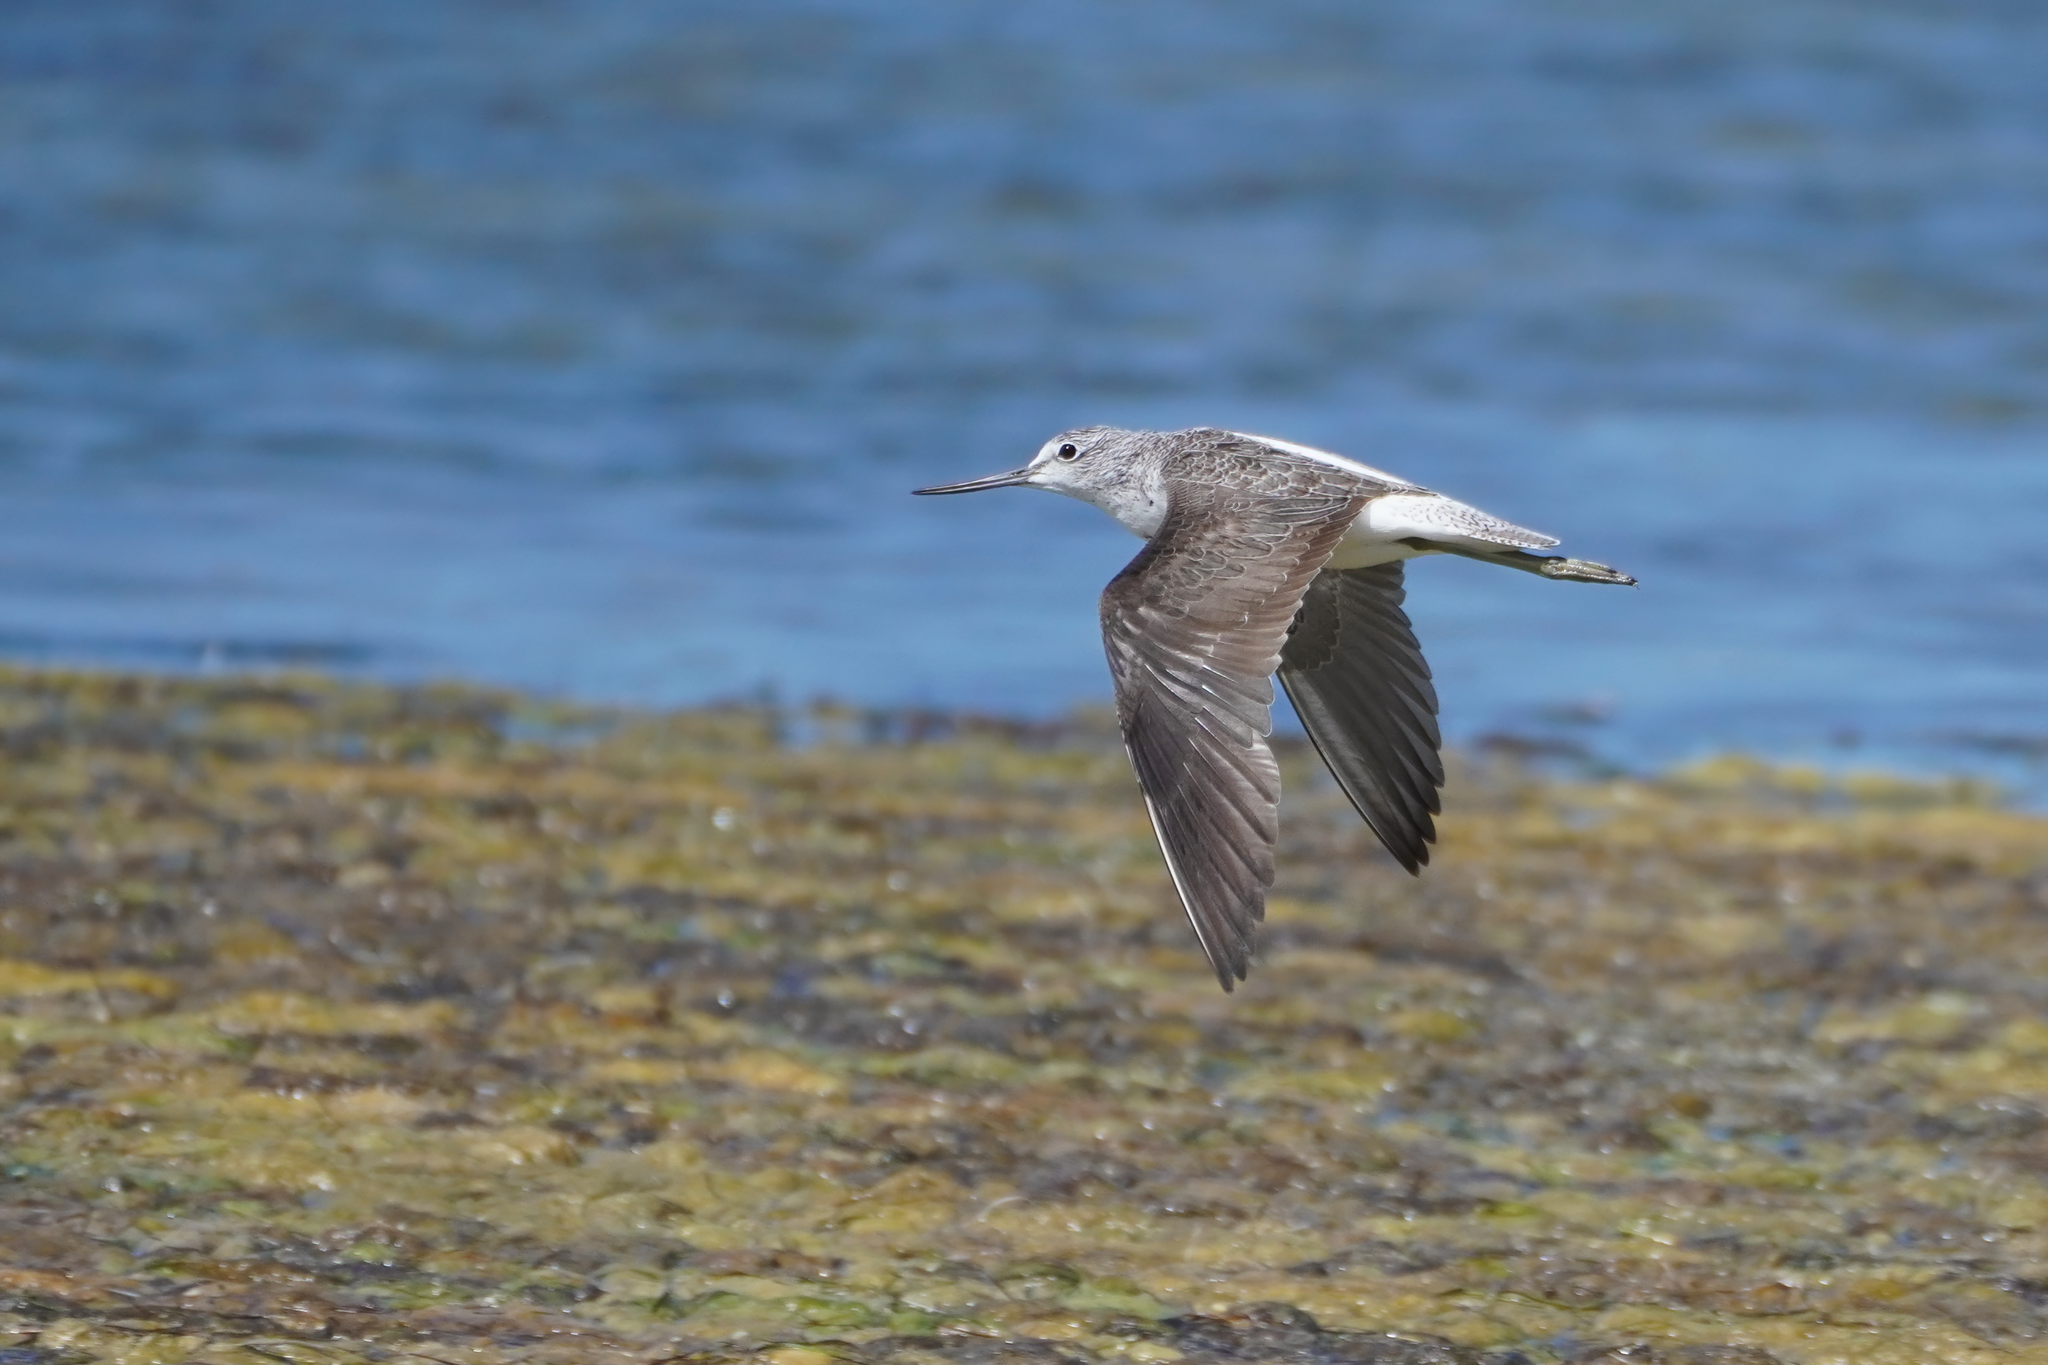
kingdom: Animalia
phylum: Chordata
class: Aves
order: Charadriiformes
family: Scolopacidae
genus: Tringa
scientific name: Tringa nebularia
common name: Common greenshank
